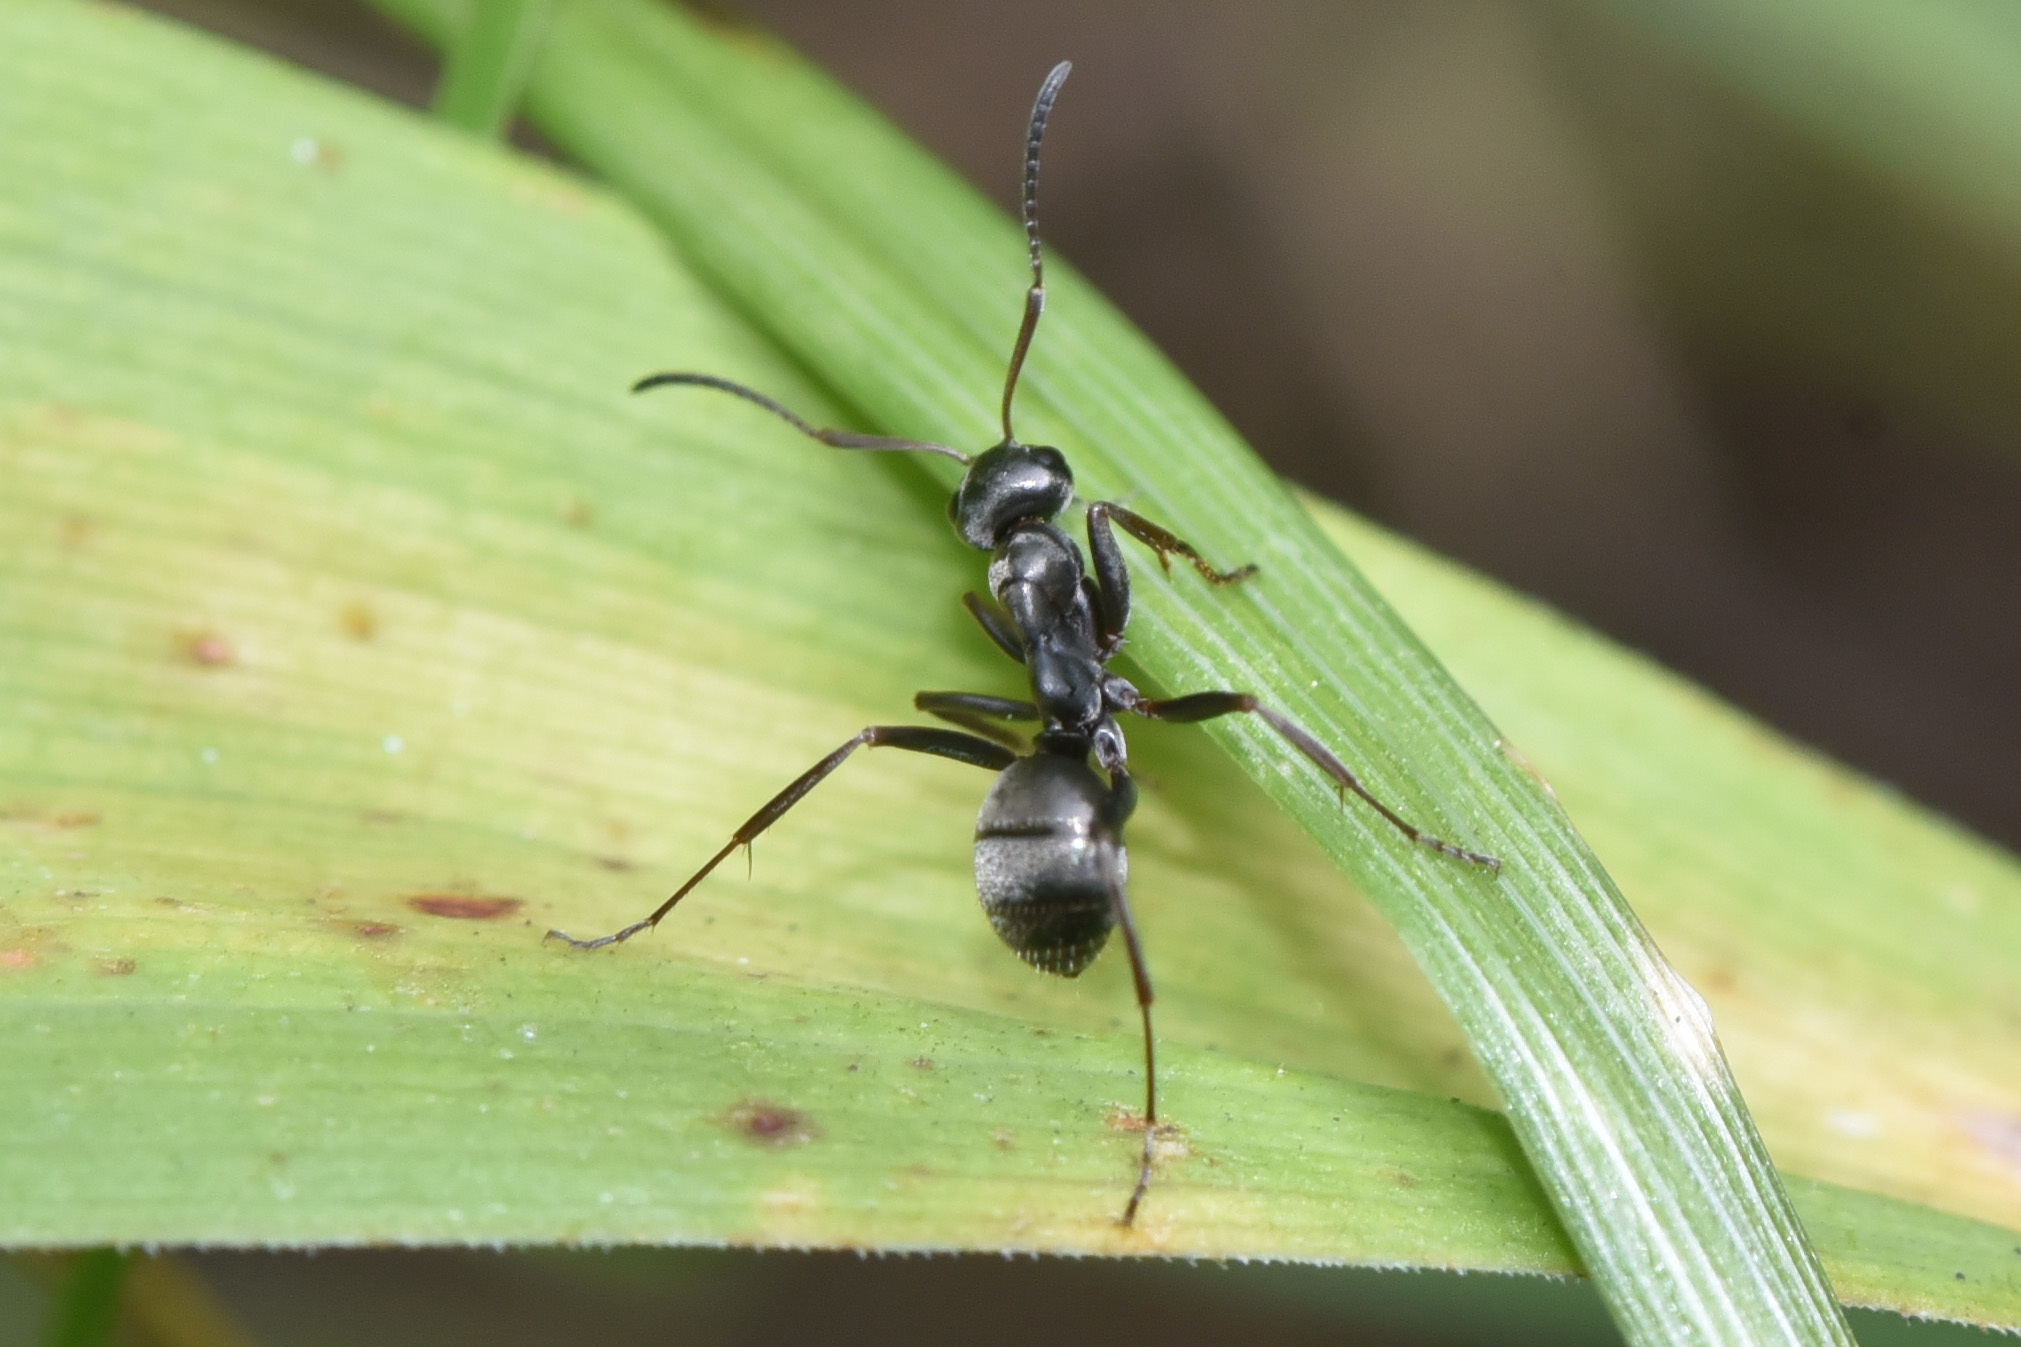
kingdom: Animalia
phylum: Arthropoda
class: Insecta
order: Hymenoptera
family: Formicidae
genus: Formica
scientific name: Formica
